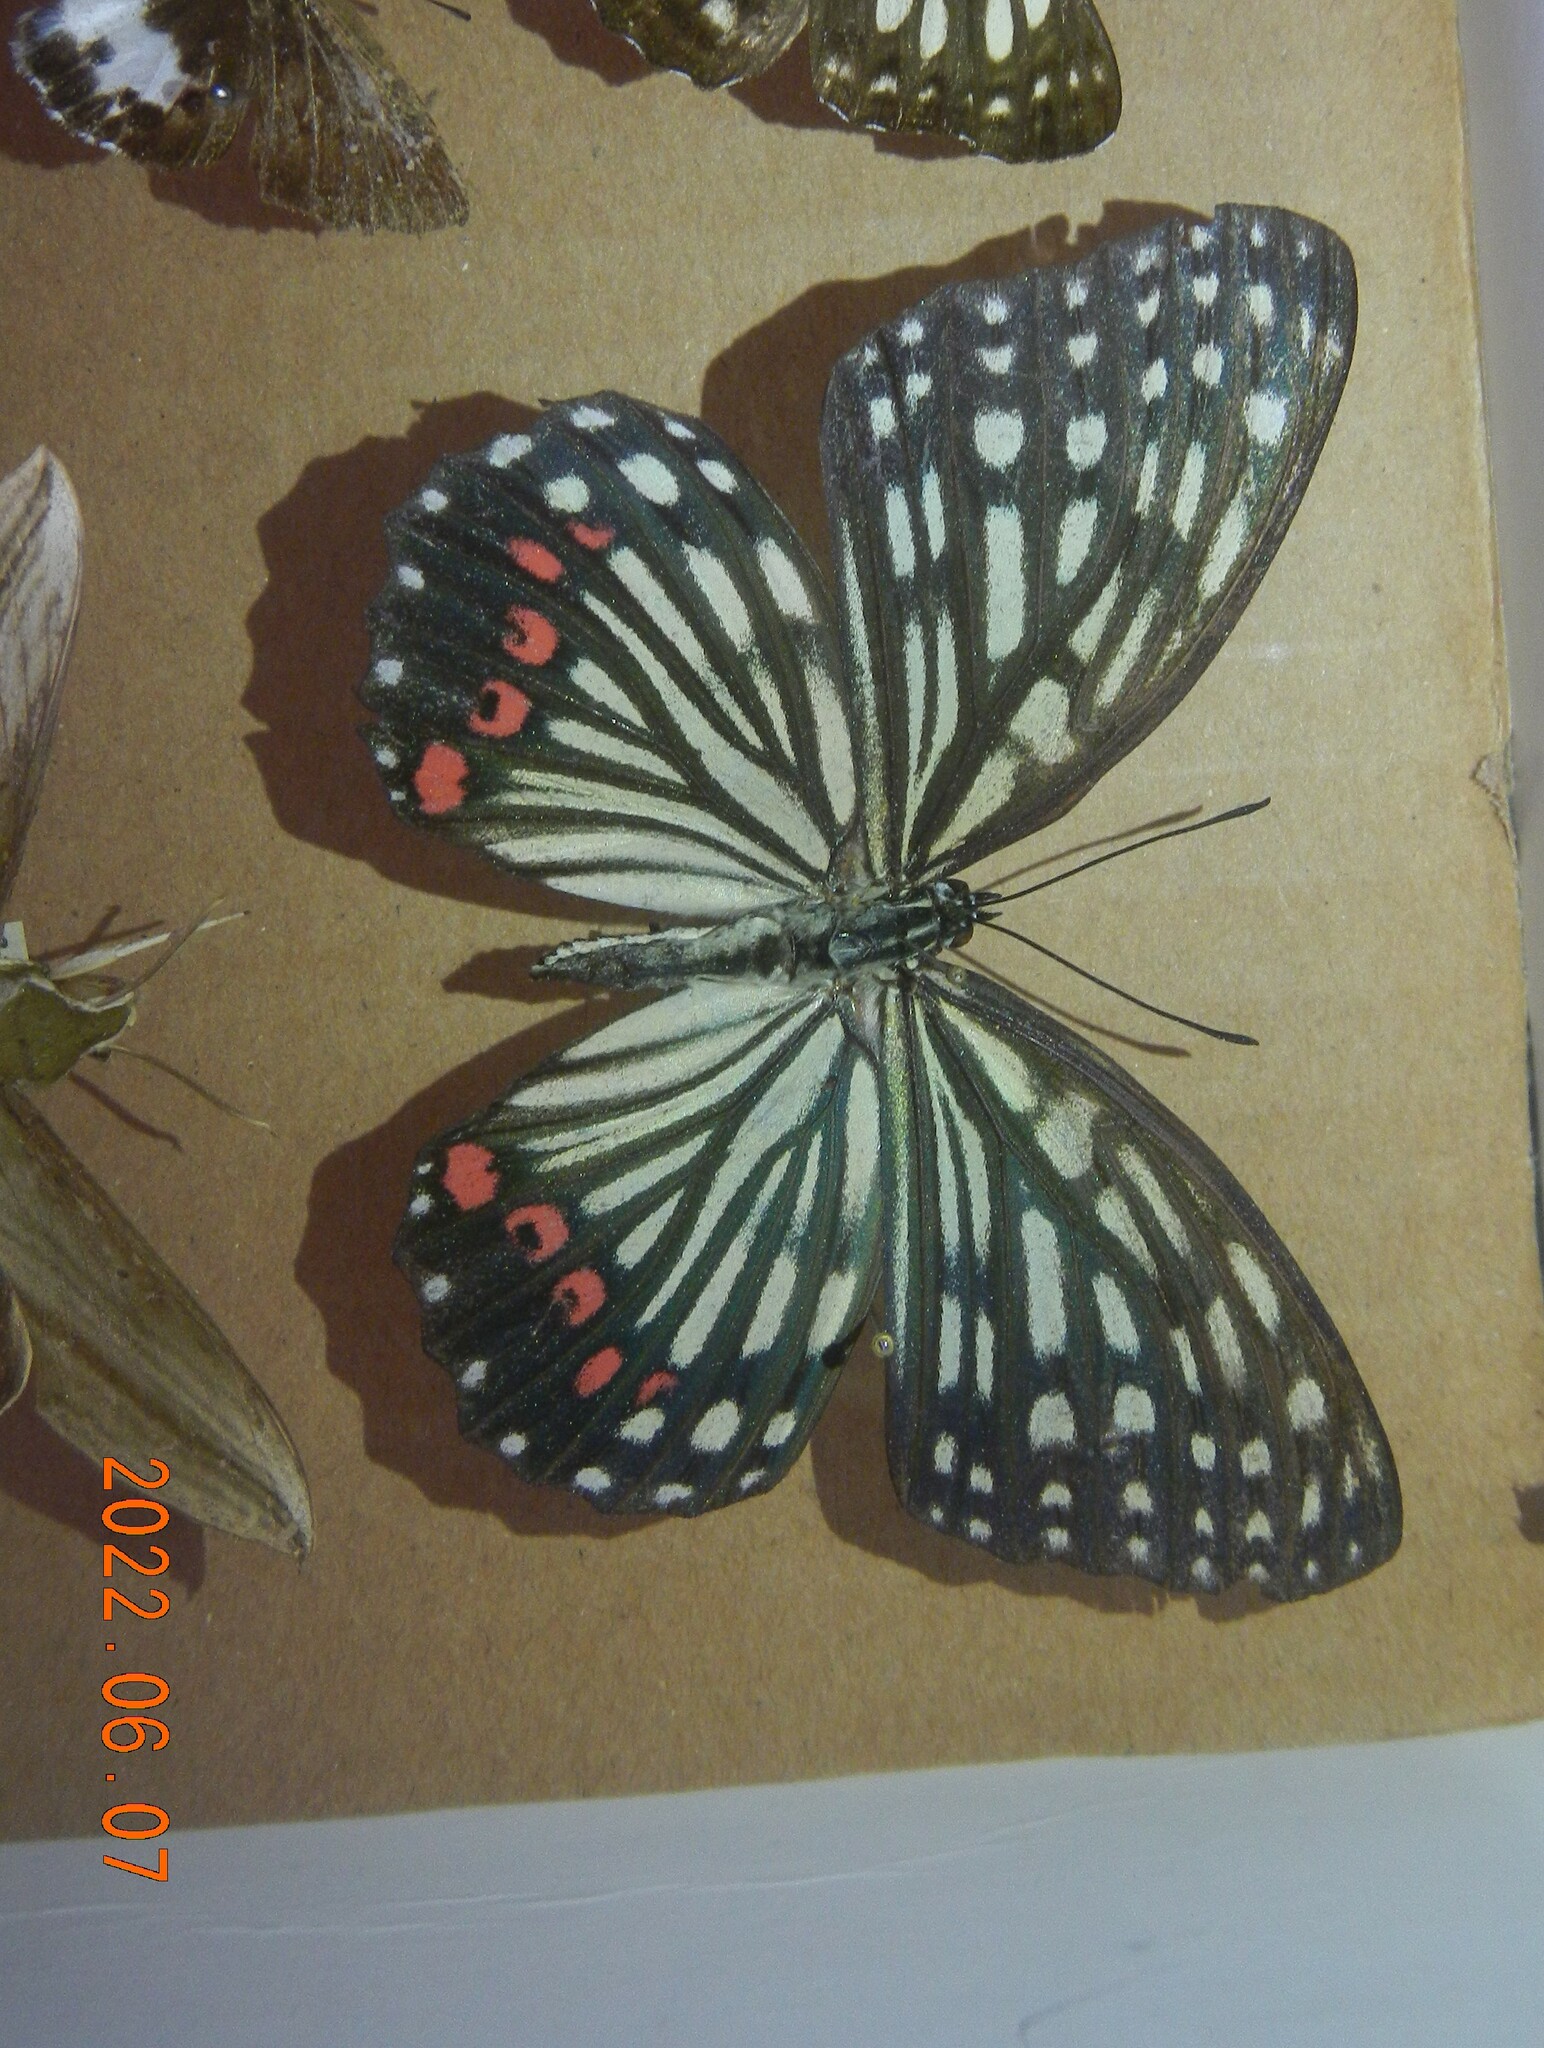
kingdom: Animalia
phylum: Arthropoda
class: Insecta
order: Lepidoptera
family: Nymphalidae
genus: Hestina
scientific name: Hestina assimilis
